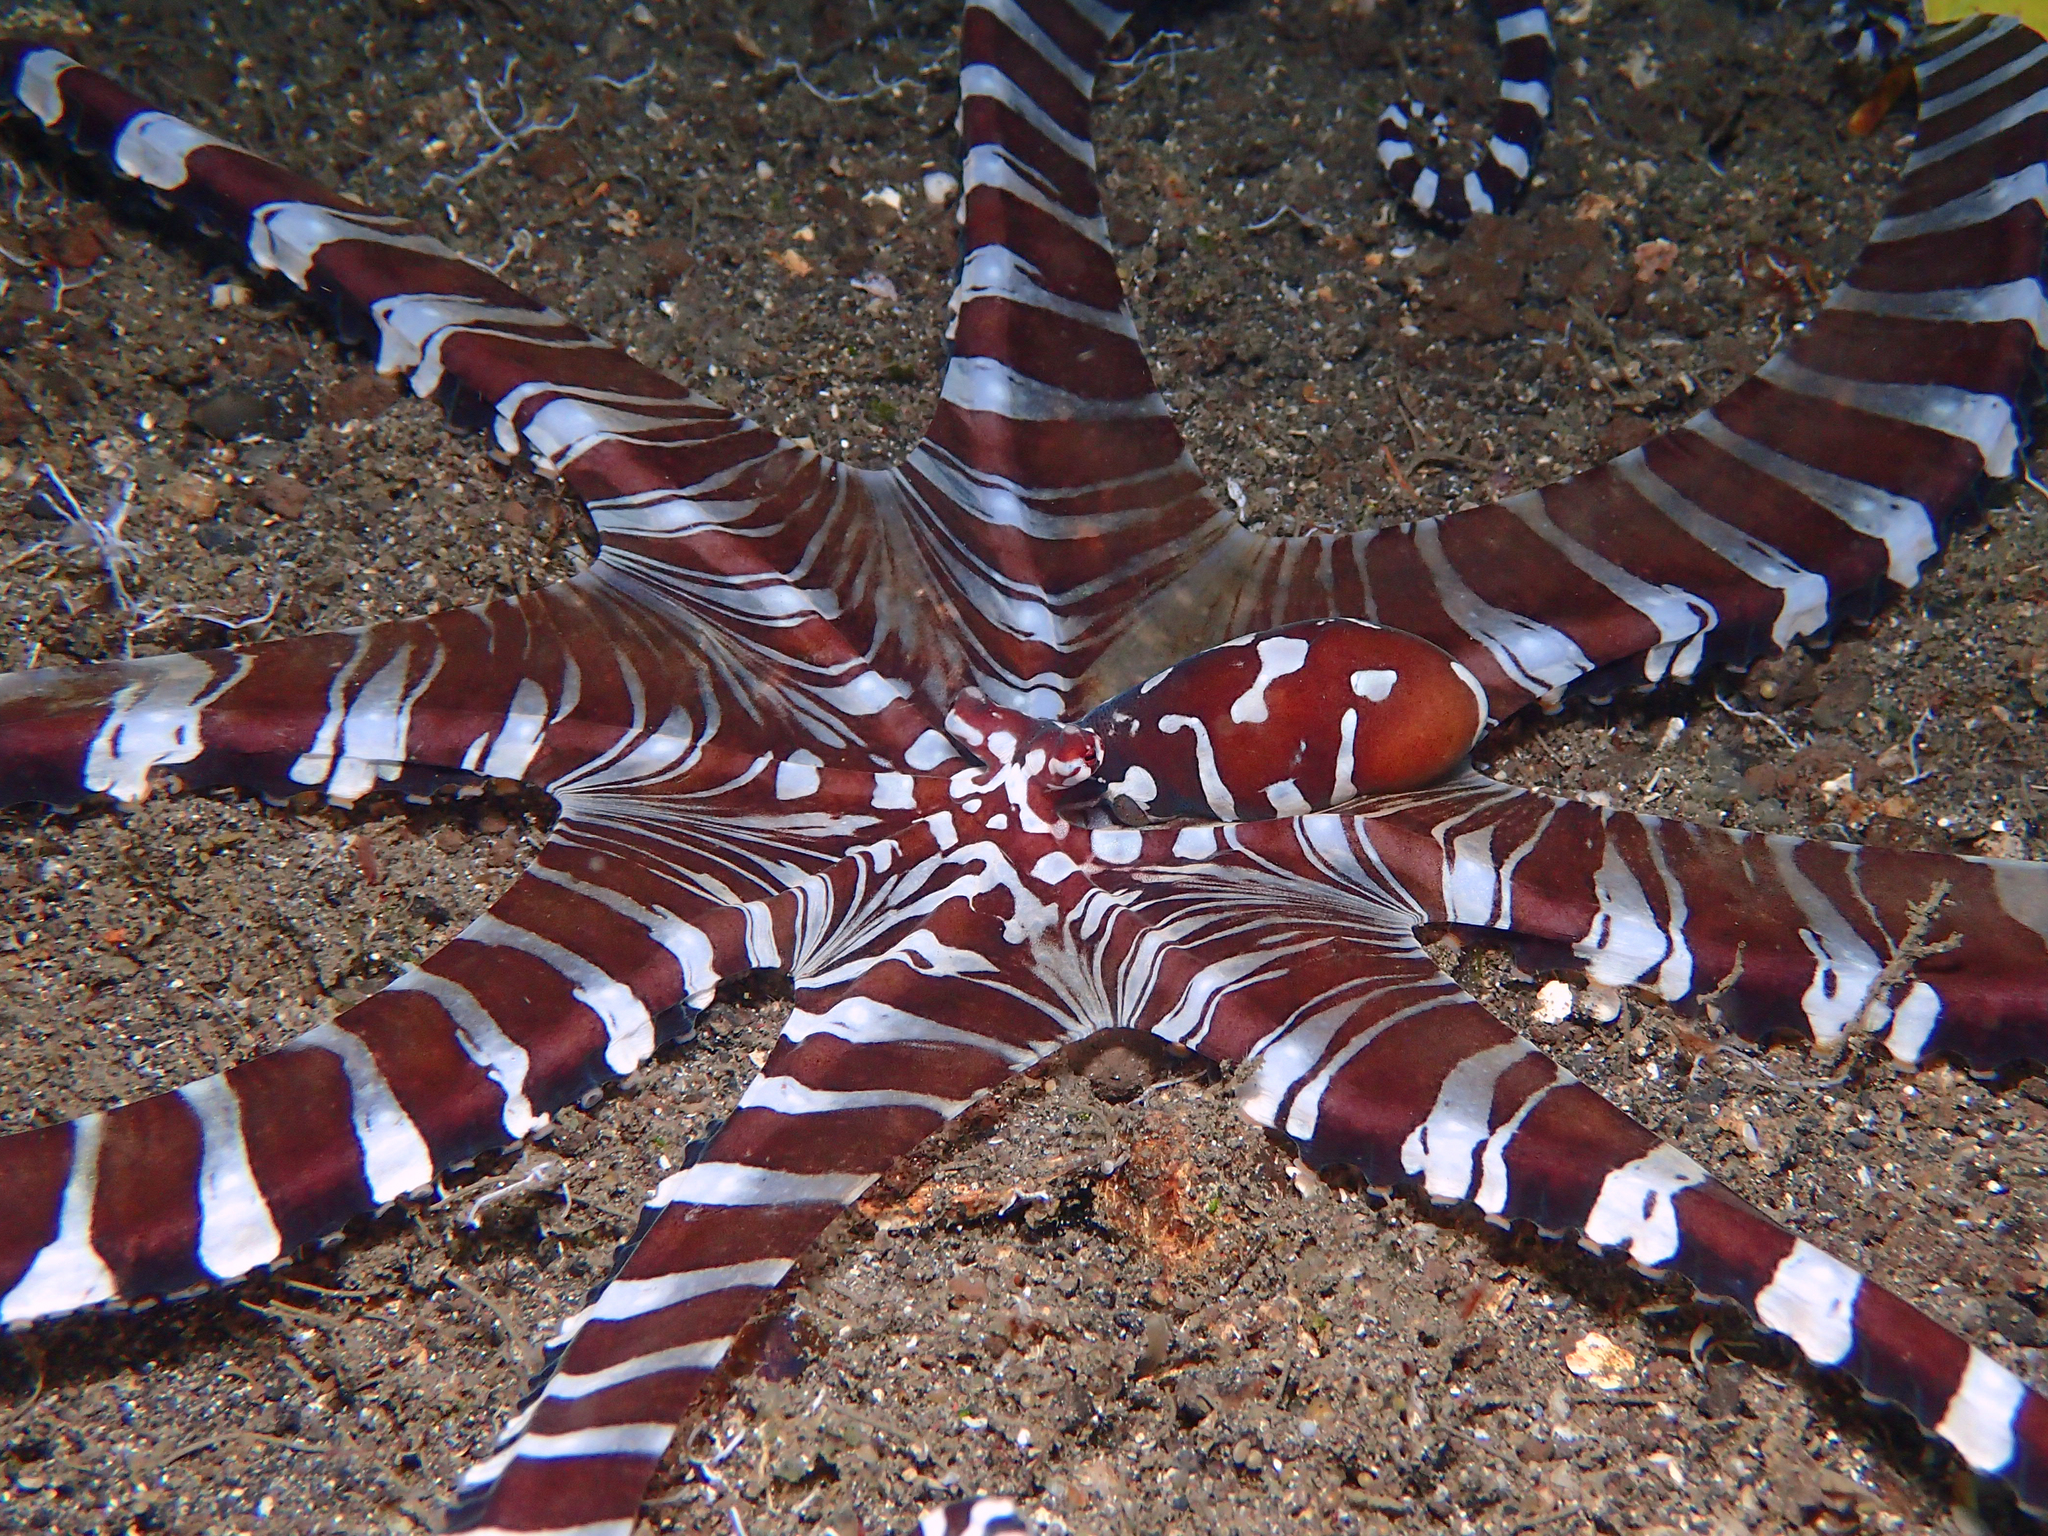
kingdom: Animalia
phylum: Mollusca
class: Cephalopoda
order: Octopoda
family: Octopodidae
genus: Wunderpus
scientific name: Wunderpus photogenicus
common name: Wunderpus
